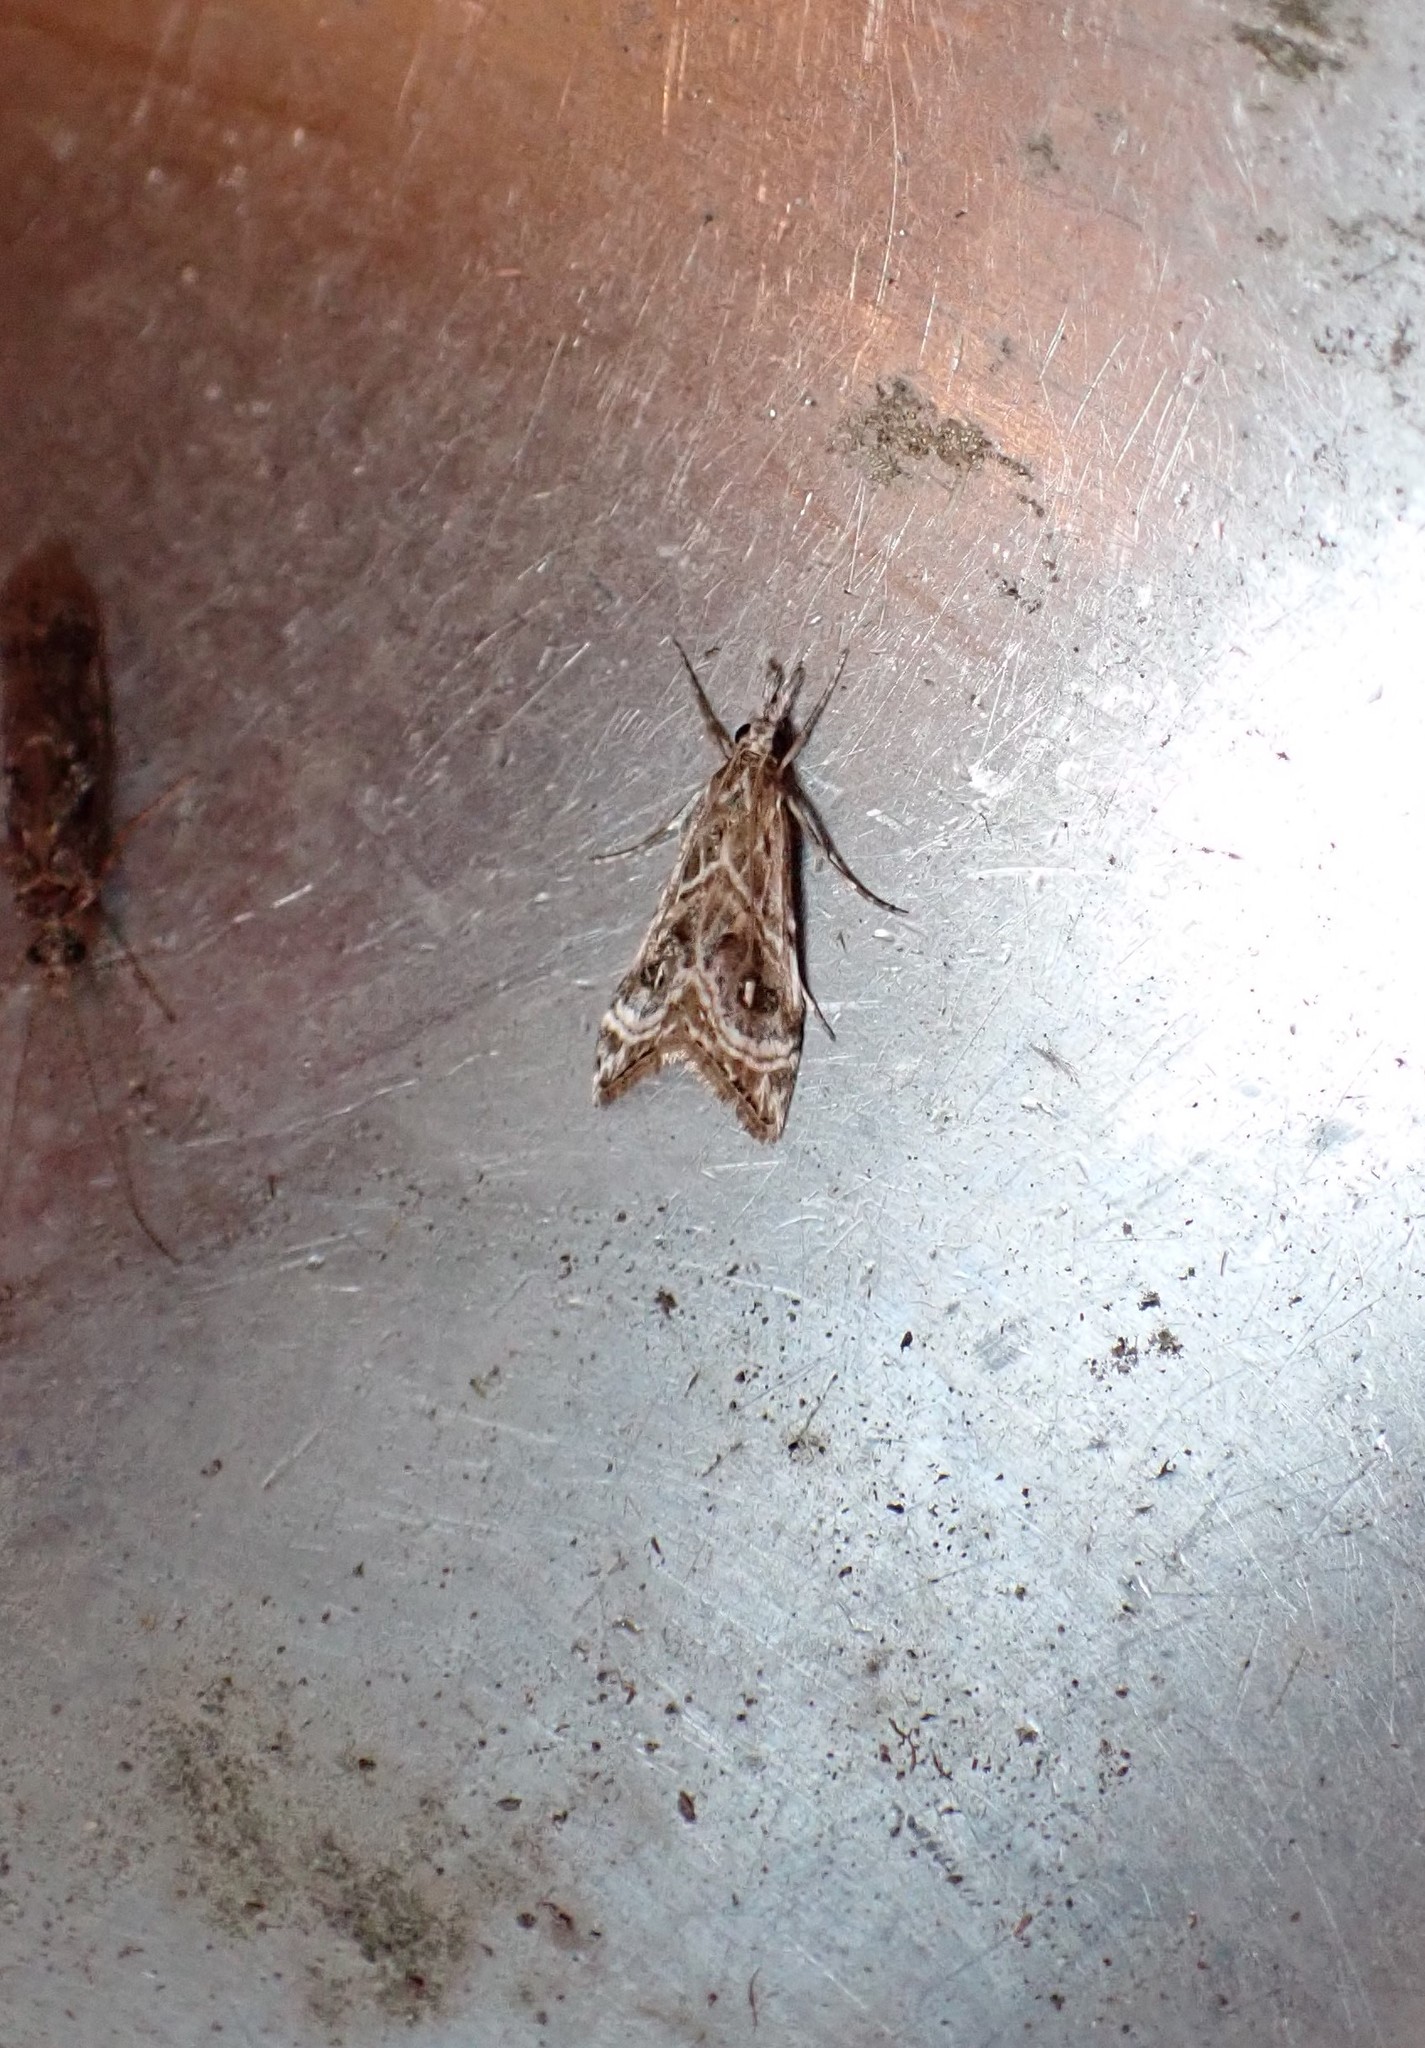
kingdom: Animalia
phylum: Arthropoda
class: Insecta
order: Lepidoptera
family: Crambidae
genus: Gadira
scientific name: Gadira acerella
